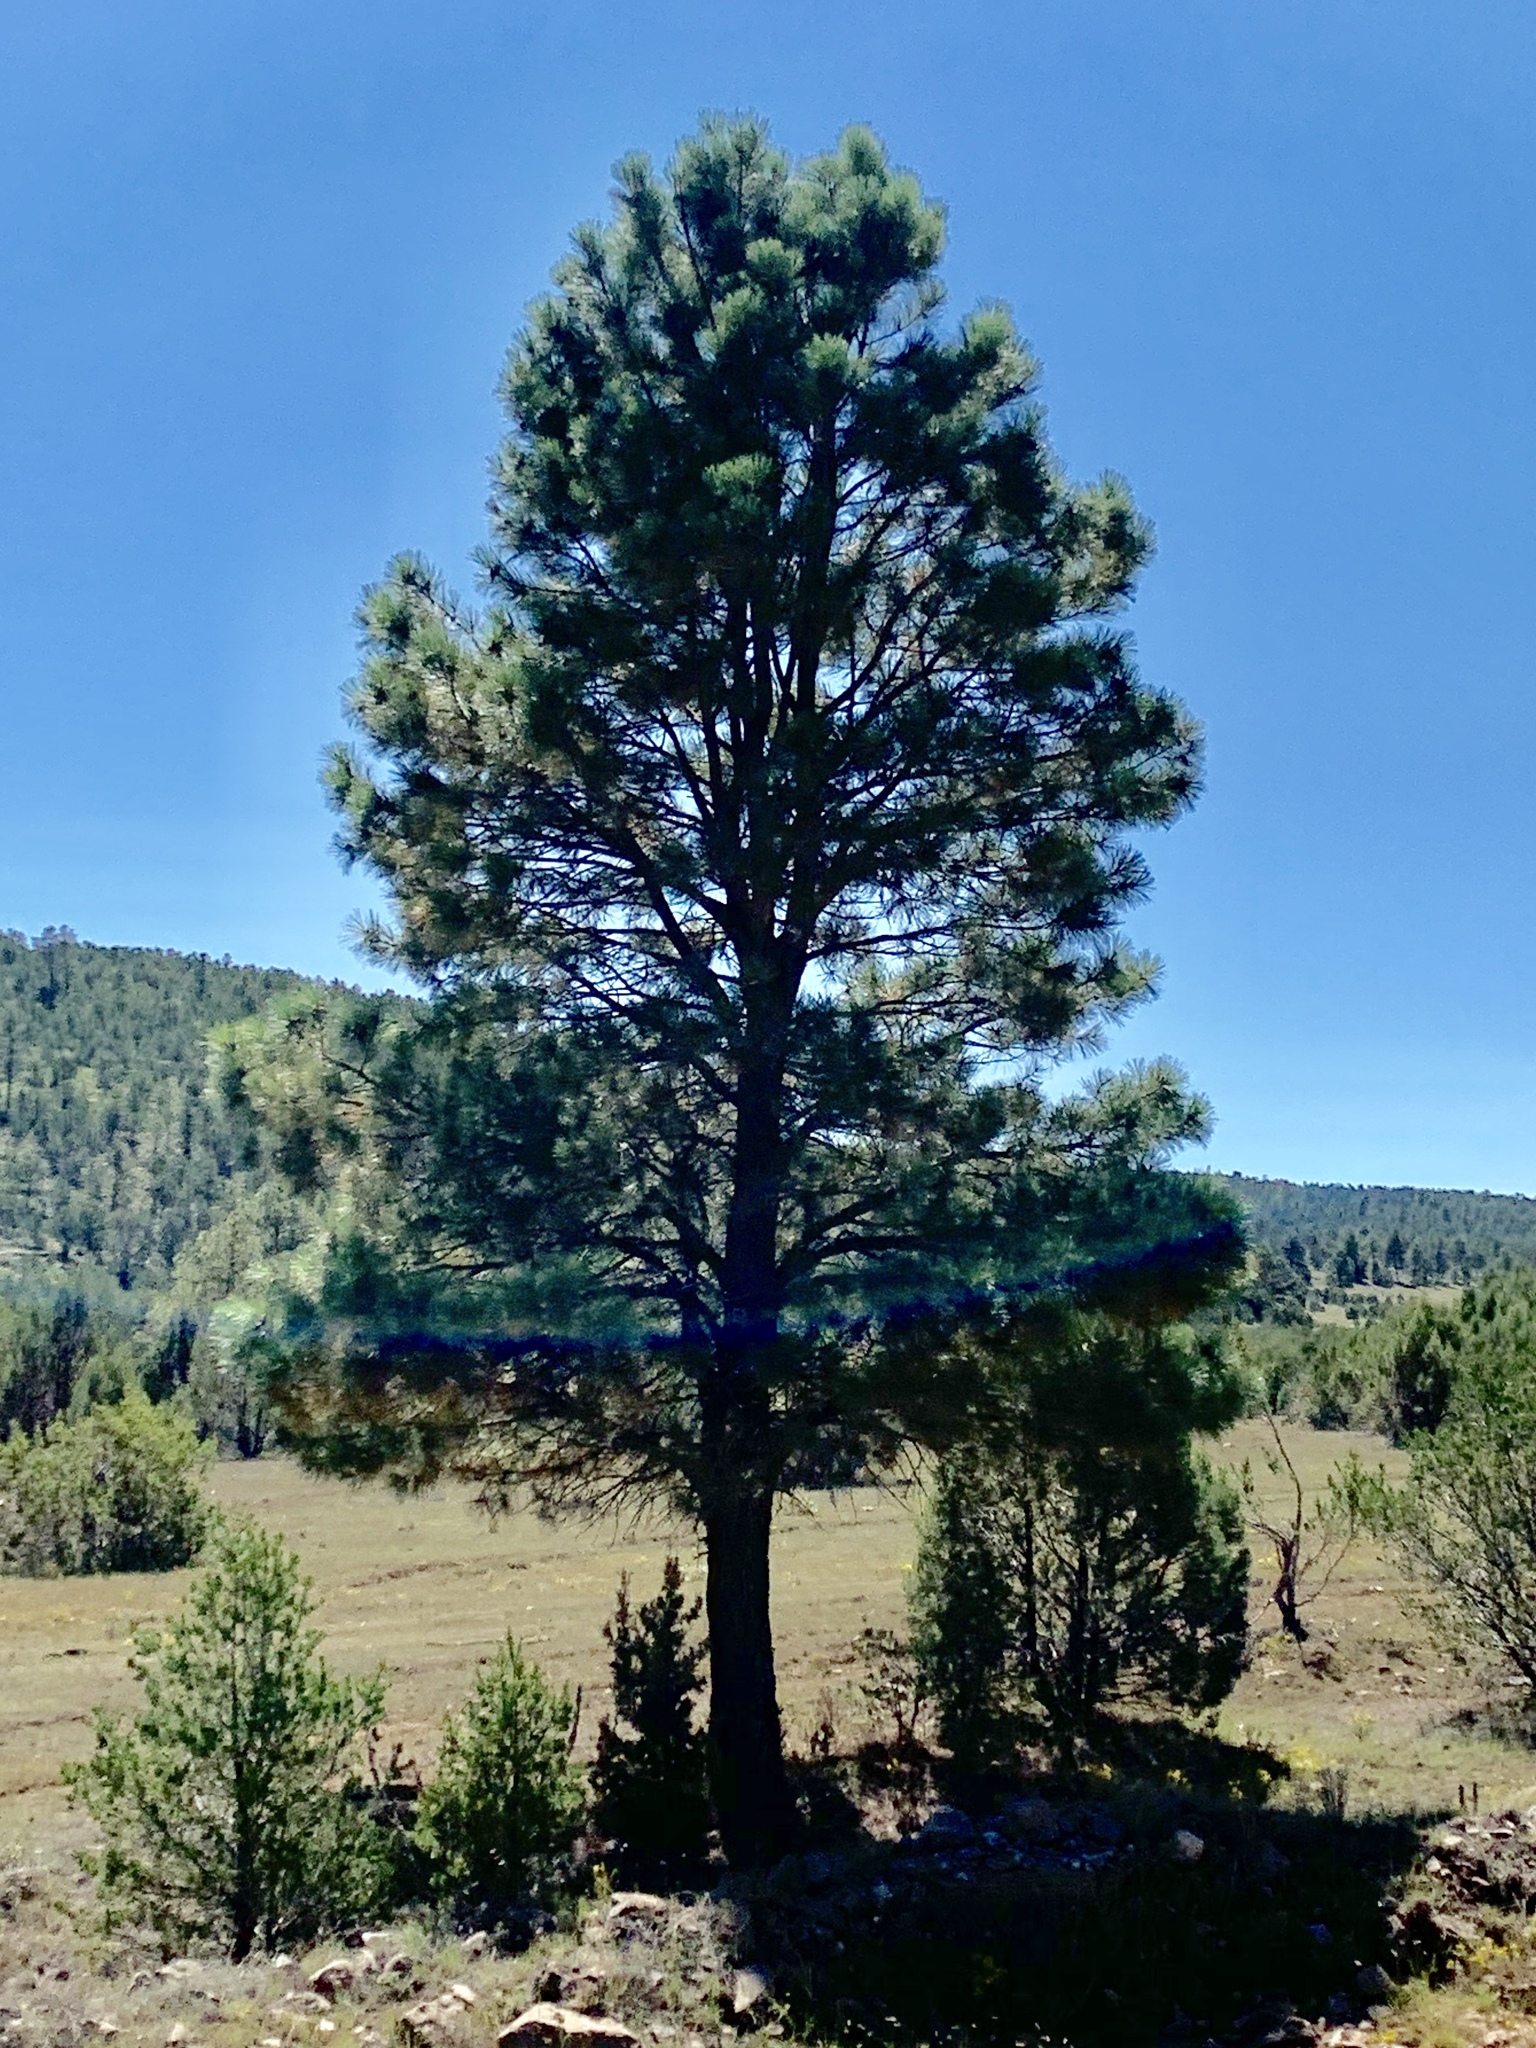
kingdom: Plantae
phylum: Tracheophyta
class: Pinopsida
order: Pinales
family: Pinaceae
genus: Pinus
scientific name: Pinus ponderosa
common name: Western yellow-pine
